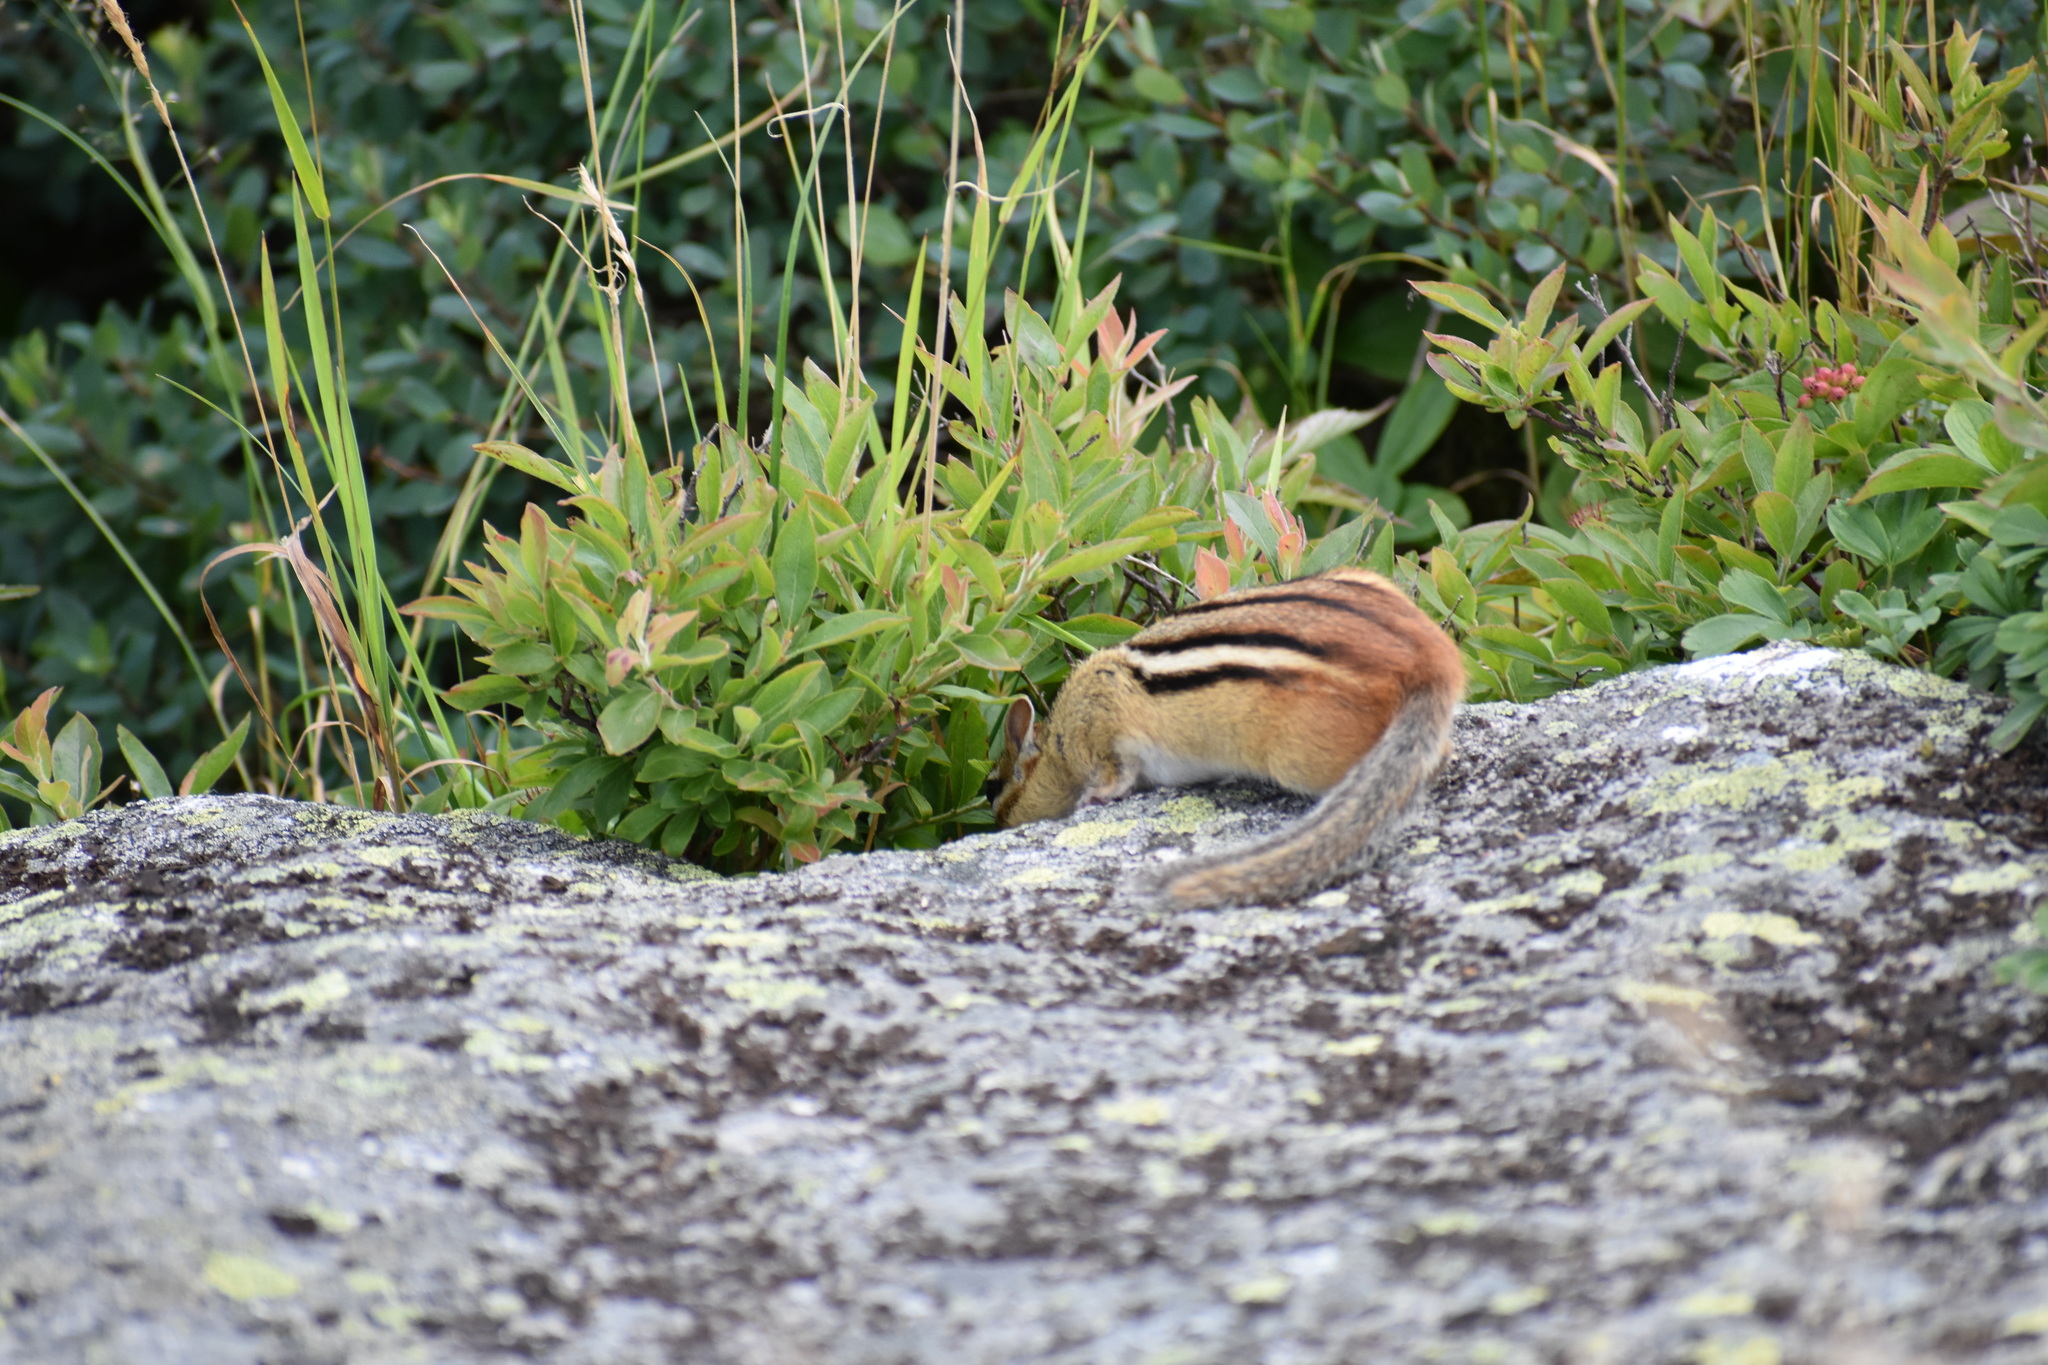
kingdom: Animalia
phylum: Chordata
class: Mammalia
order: Rodentia
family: Sciuridae
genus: Tamias
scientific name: Tamias striatus
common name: Eastern chipmunk
